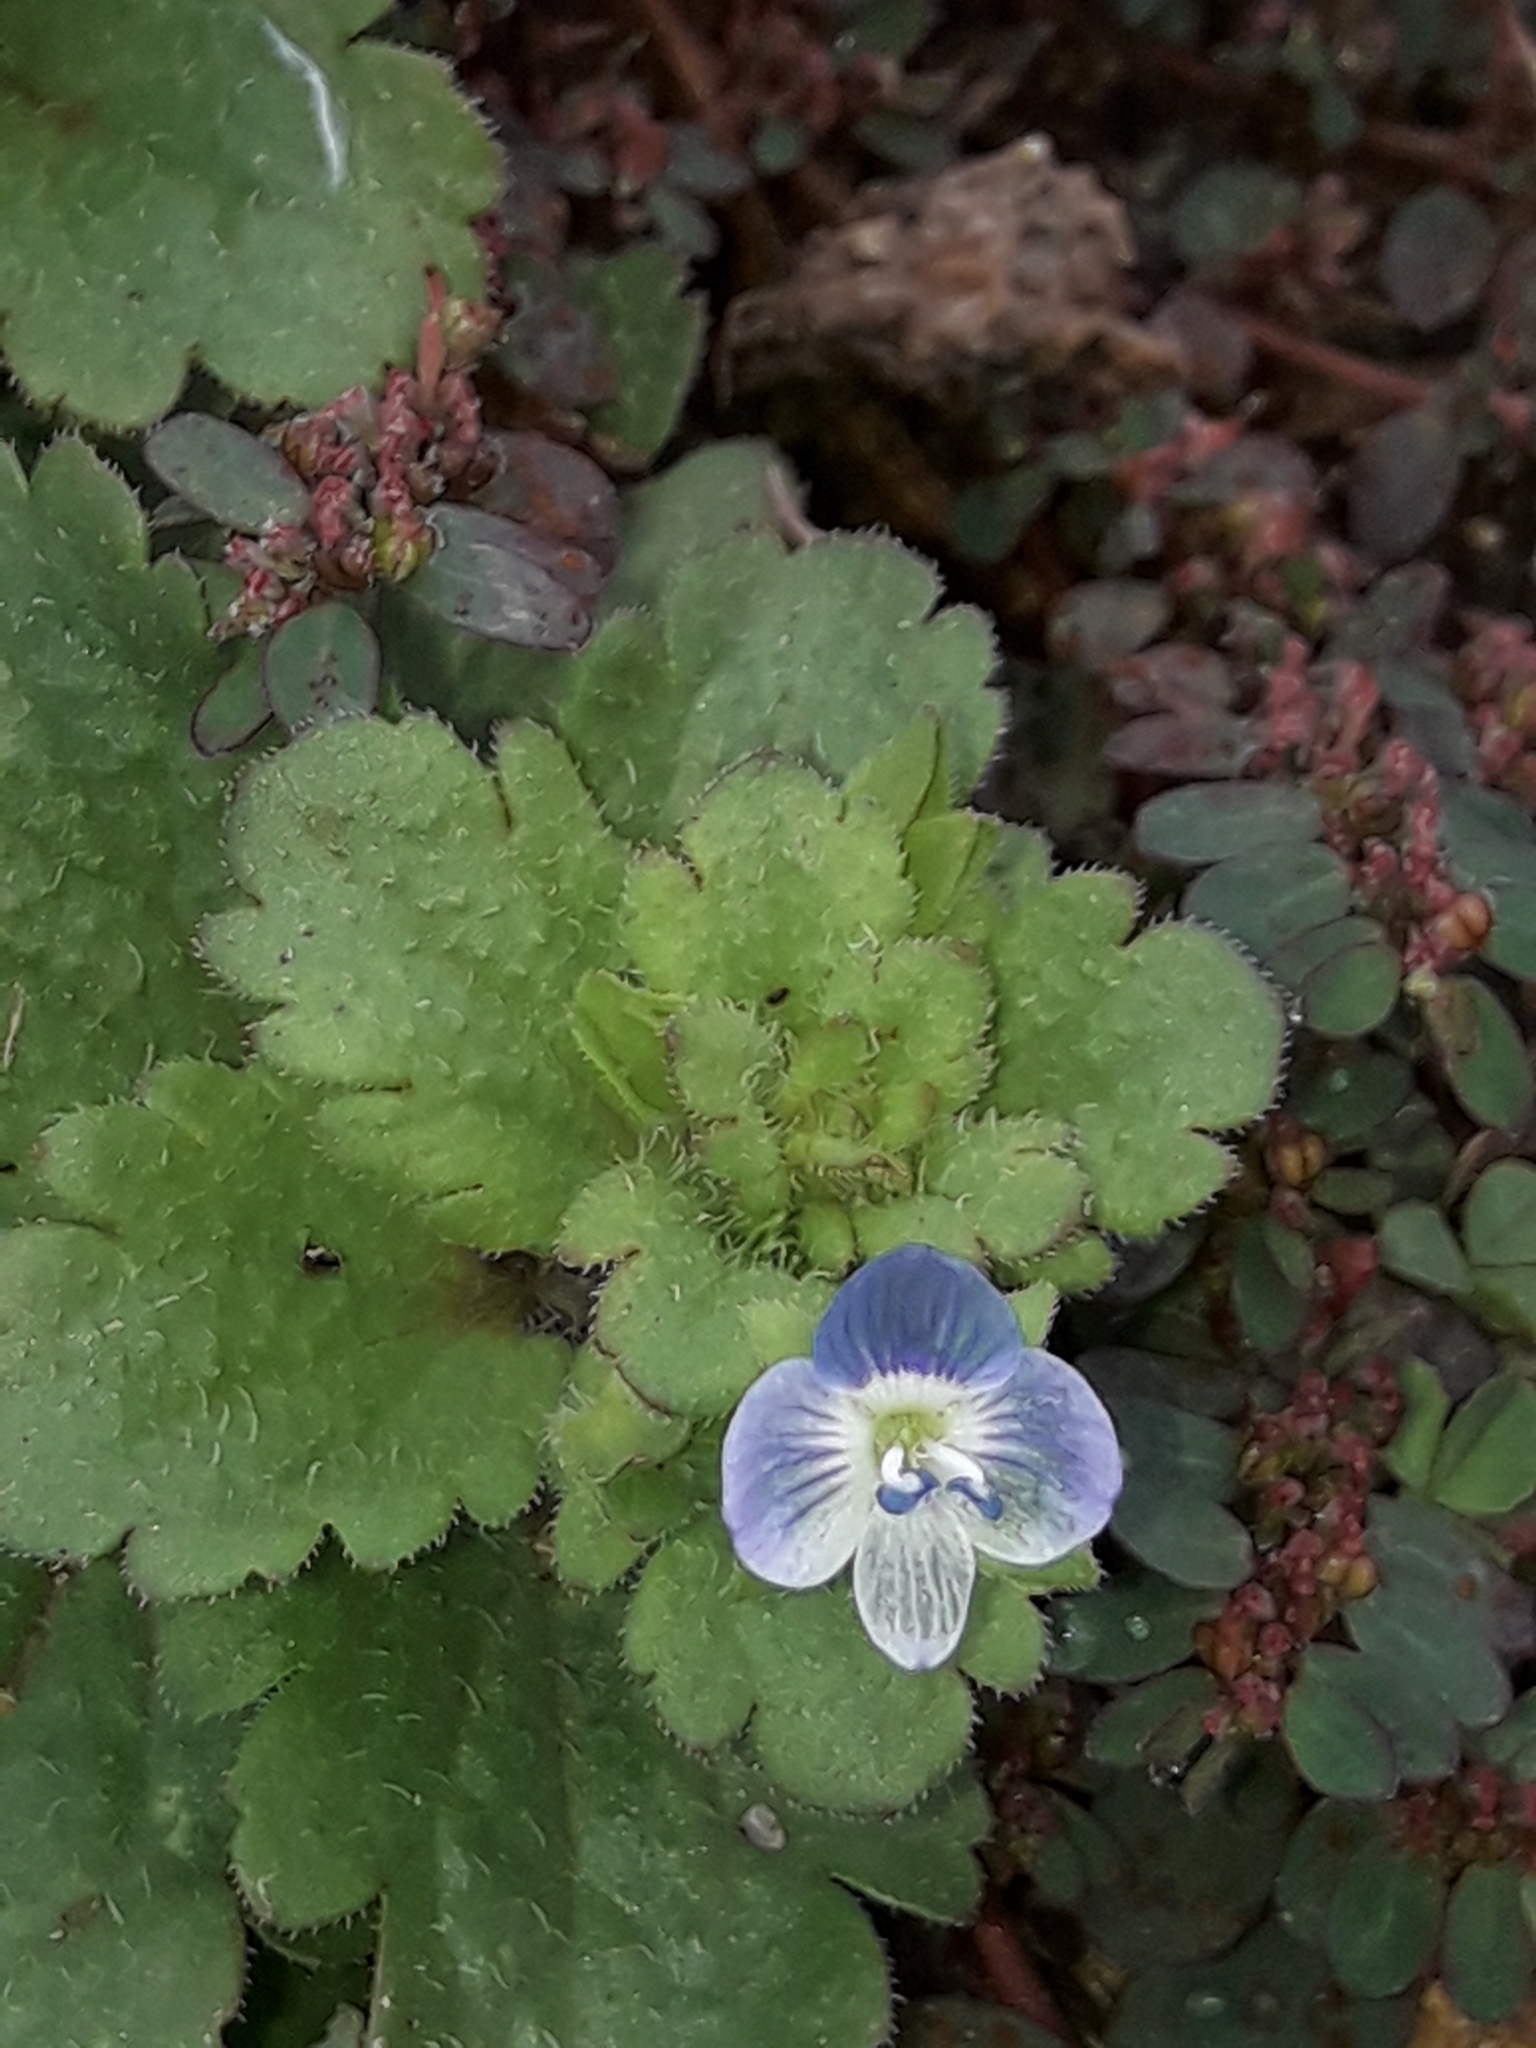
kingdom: Plantae
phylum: Tracheophyta
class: Magnoliopsida
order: Lamiales
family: Plantaginaceae
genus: Veronica
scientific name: Veronica persica
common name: Common field-speedwell
